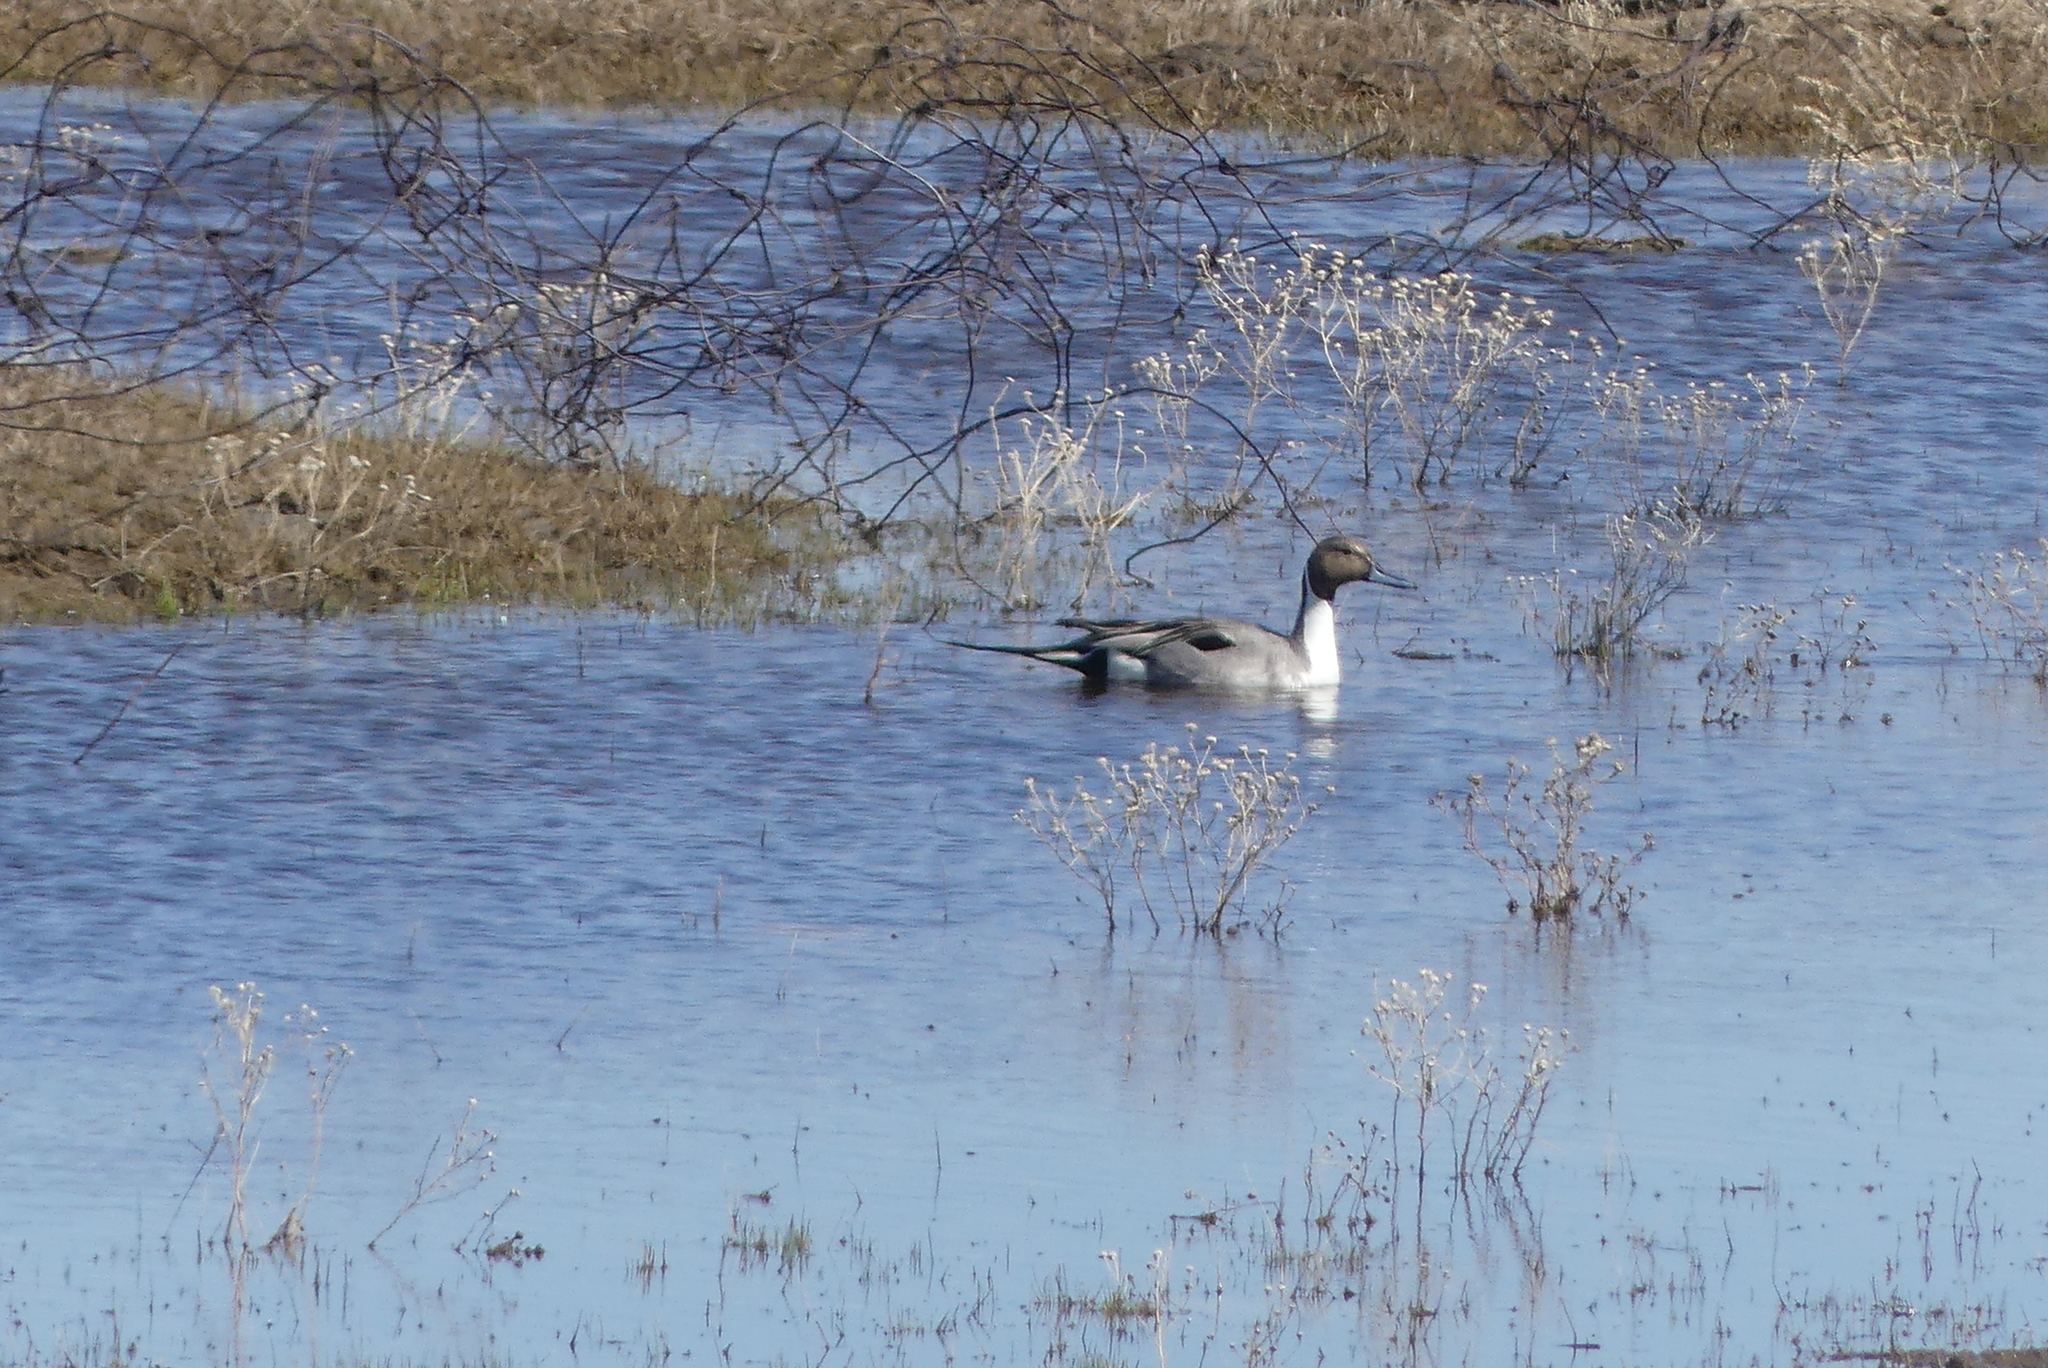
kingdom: Animalia
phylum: Chordata
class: Aves
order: Anseriformes
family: Anatidae
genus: Anas
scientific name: Anas acuta
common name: Northern pintail
